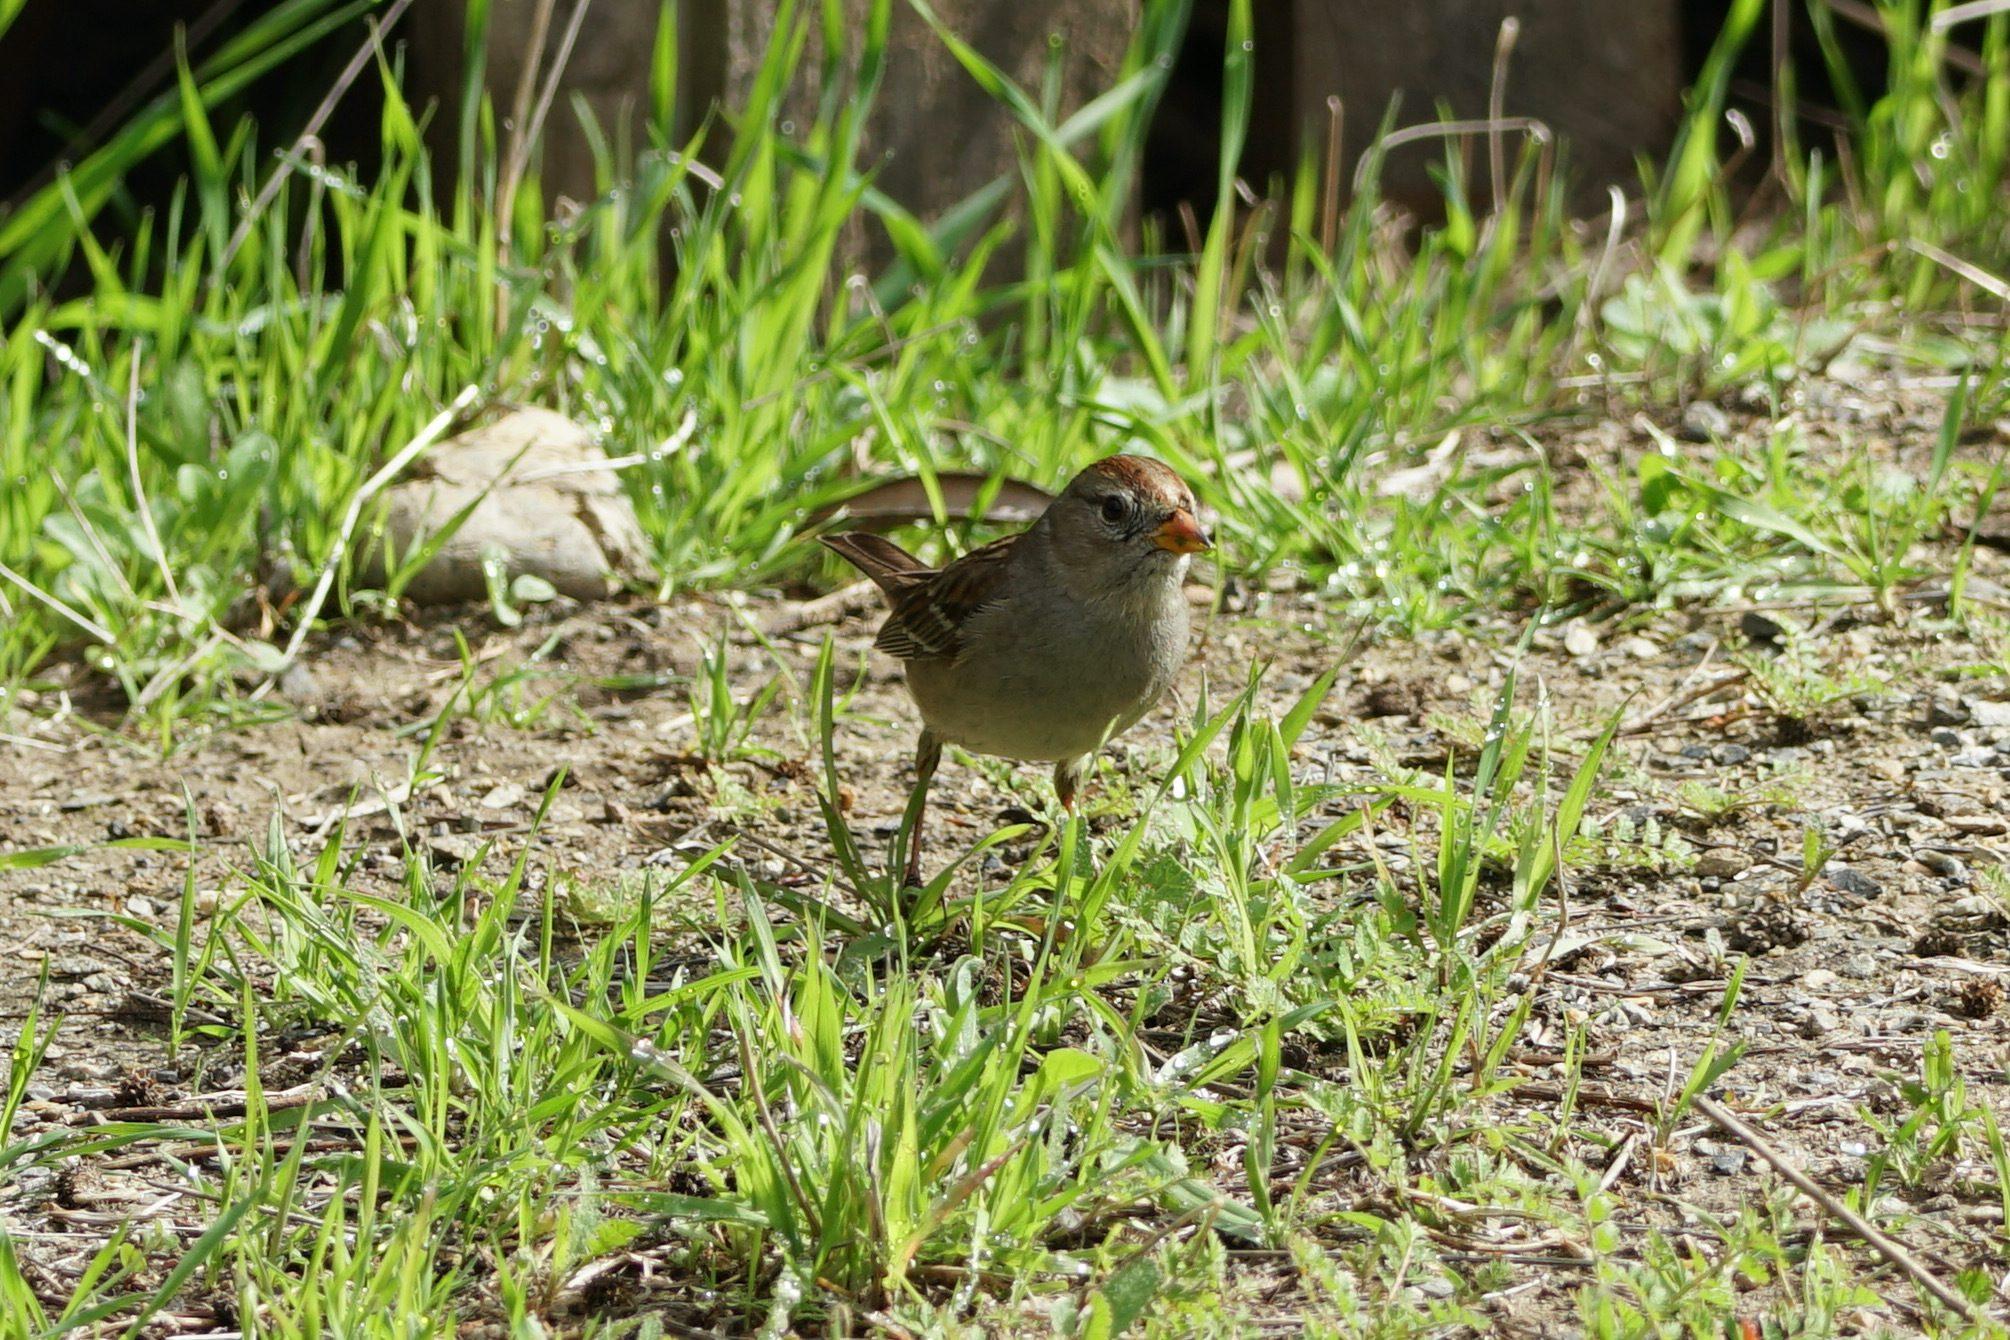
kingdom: Animalia
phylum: Chordata
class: Aves
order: Passeriformes
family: Passerellidae
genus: Zonotrichia
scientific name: Zonotrichia leucophrys
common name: White-crowned sparrow
